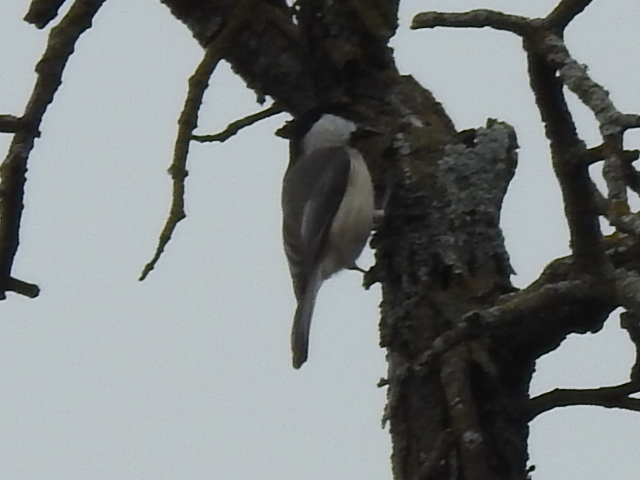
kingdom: Animalia
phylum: Chordata
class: Aves
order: Passeriformes
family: Paridae
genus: Poecile
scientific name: Poecile carolinensis
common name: Carolina chickadee
